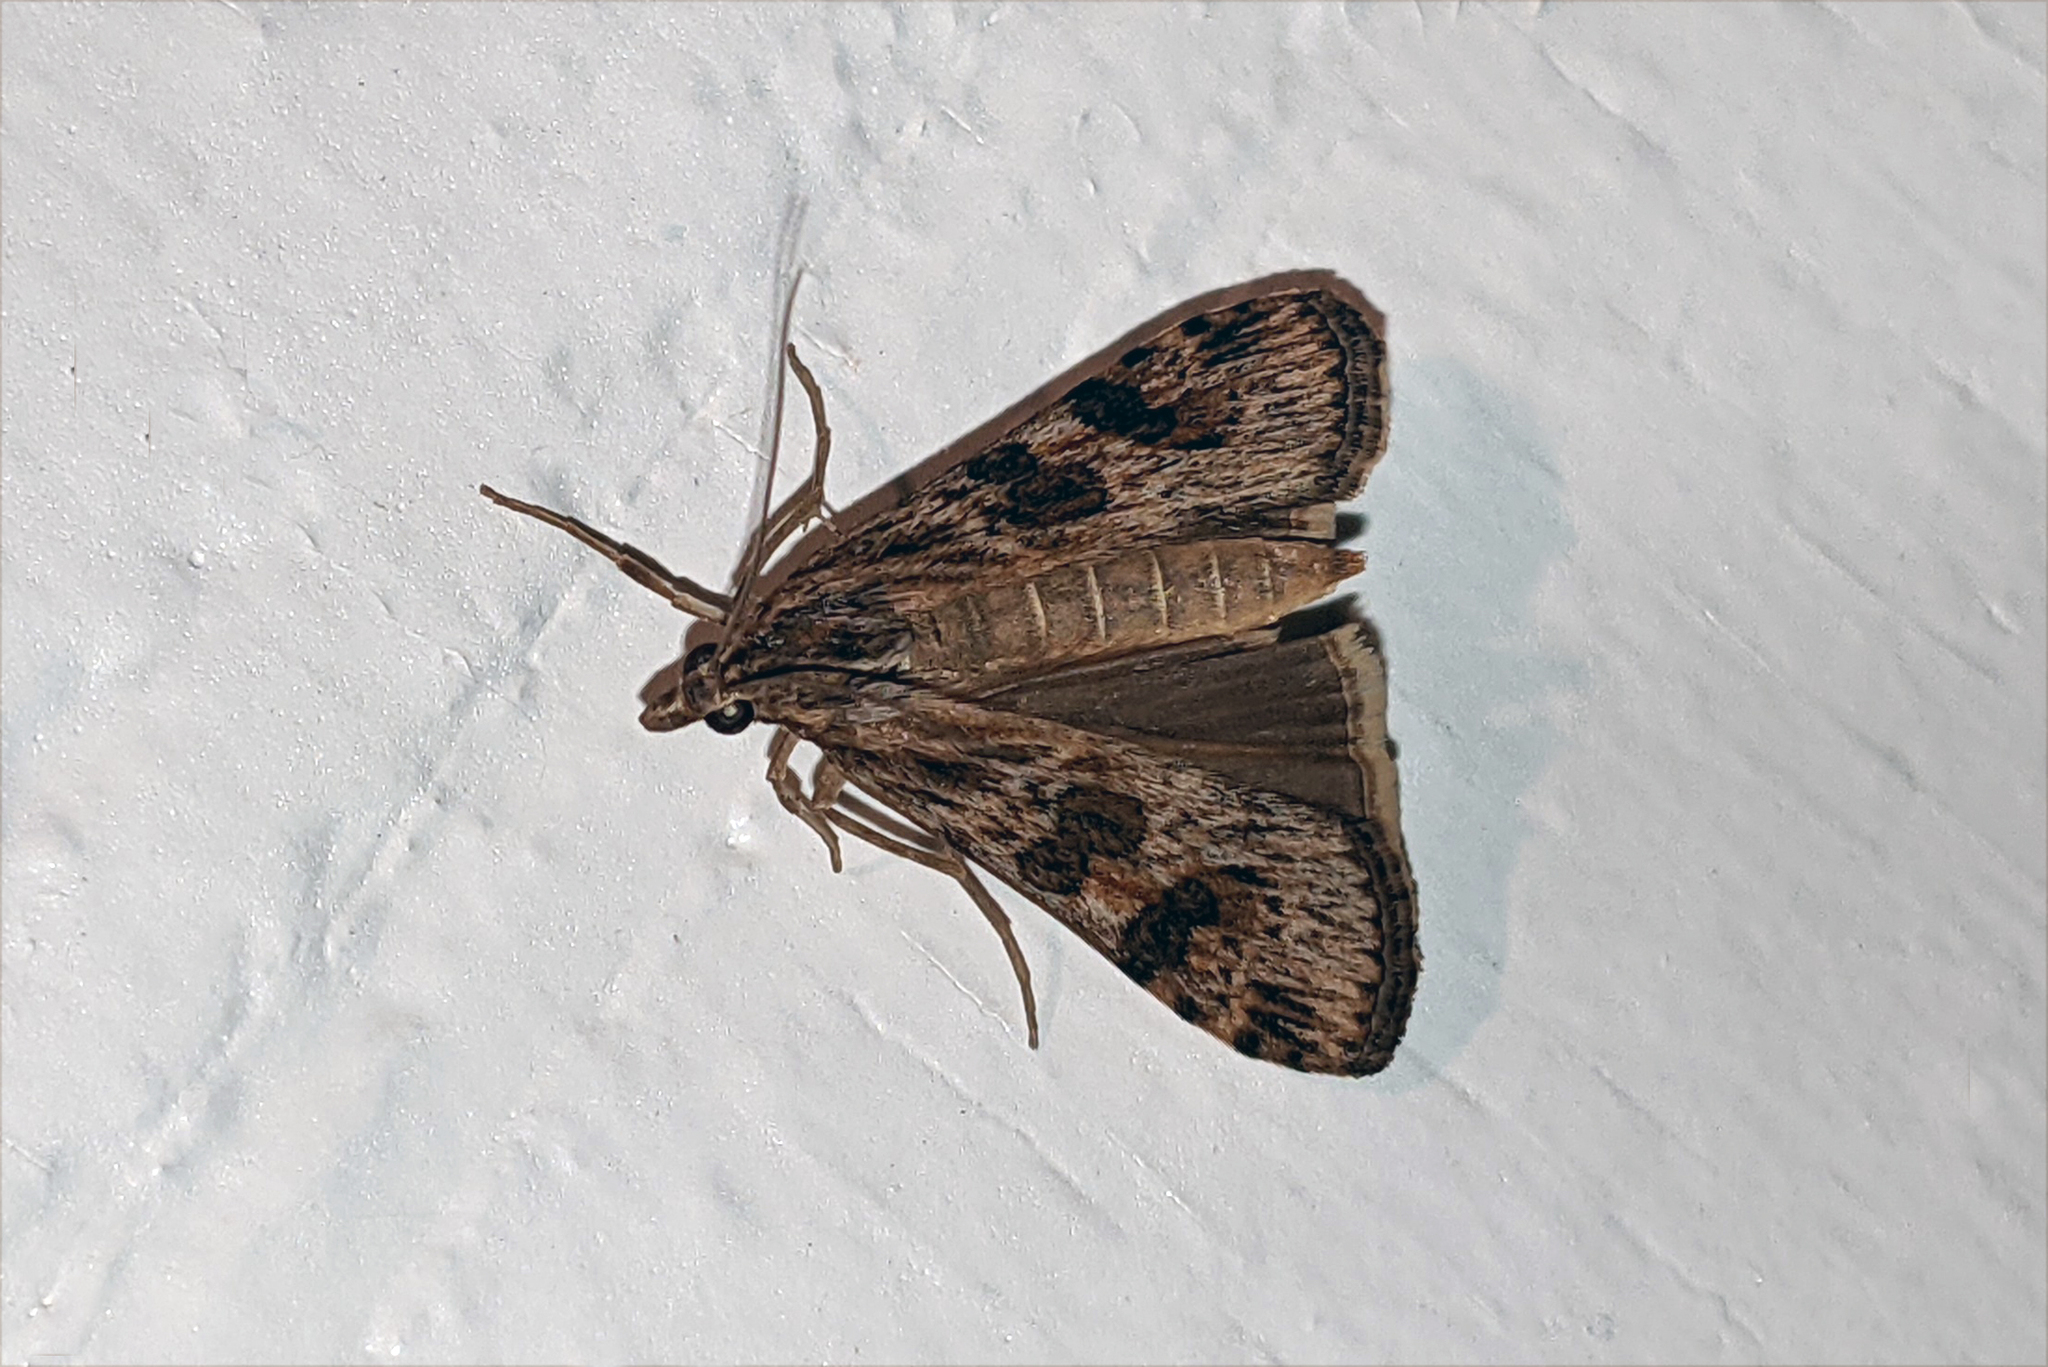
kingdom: Animalia
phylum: Arthropoda
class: Insecta
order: Lepidoptera
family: Crambidae
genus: Nomophila
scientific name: Nomophila nearctica
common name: American rush veneer
